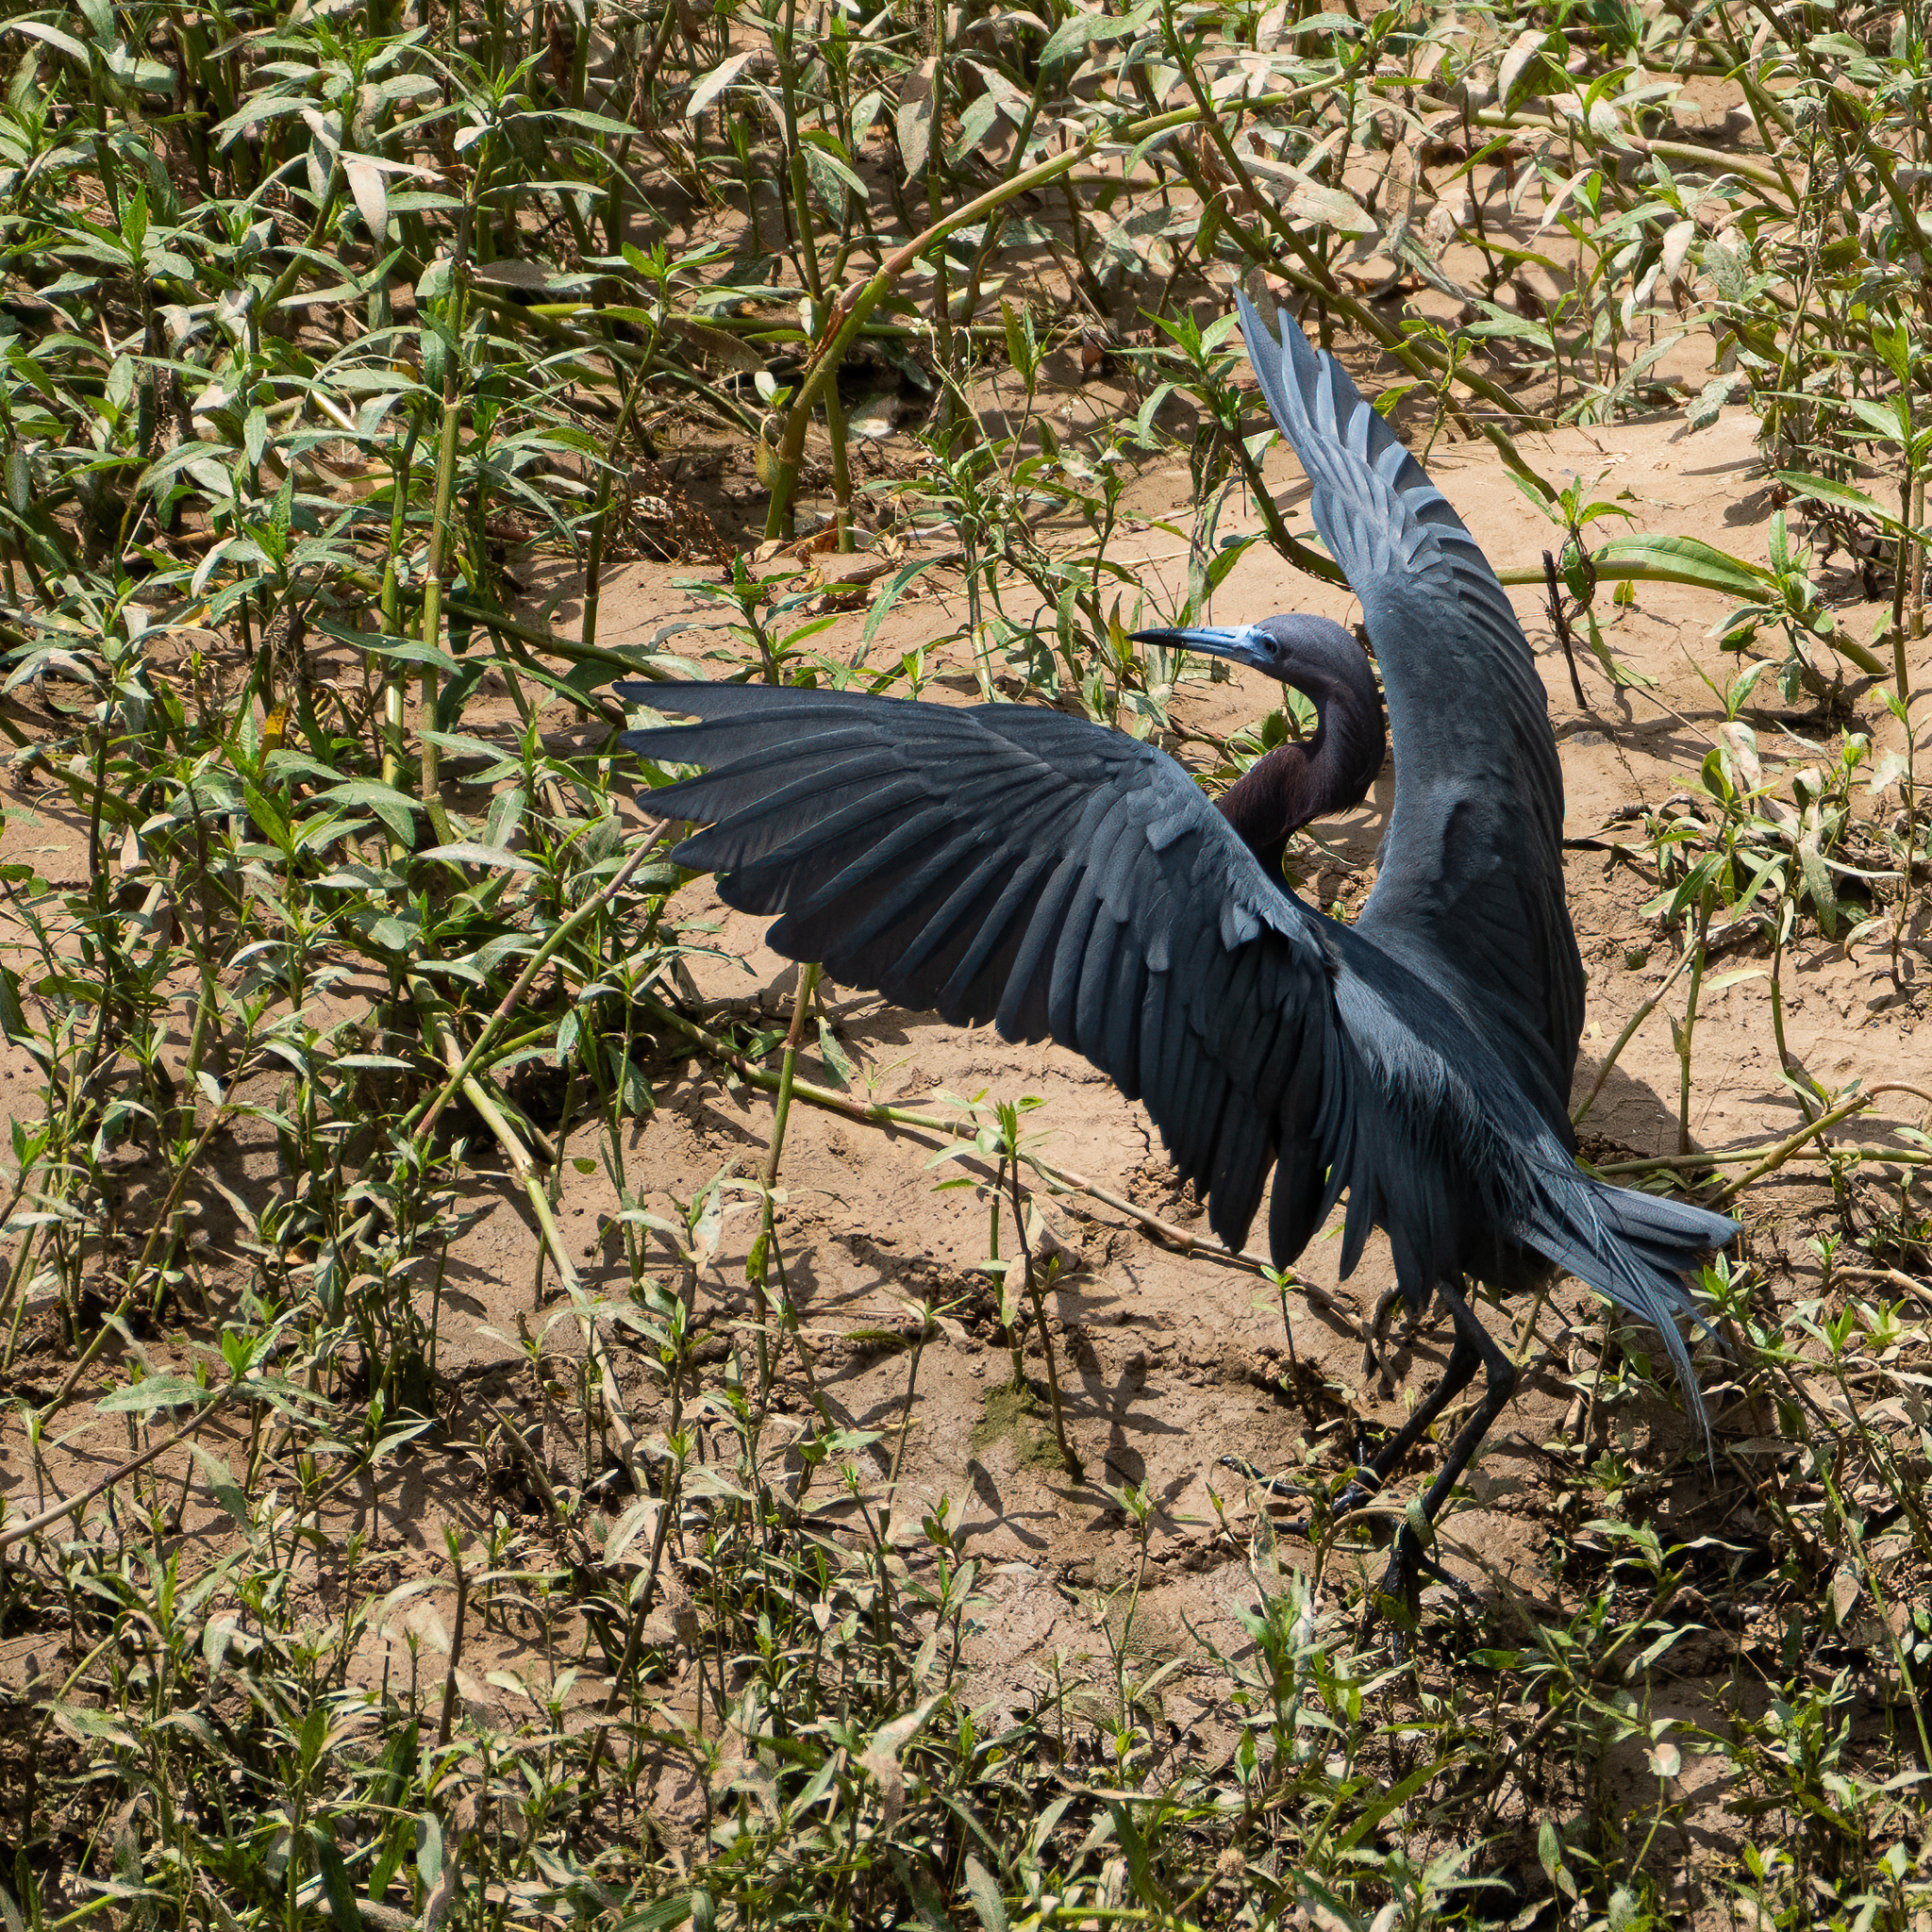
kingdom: Animalia
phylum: Chordata
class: Aves
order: Pelecaniformes
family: Ardeidae
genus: Egretta
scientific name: Egretta caerulea
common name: Little blue heron
